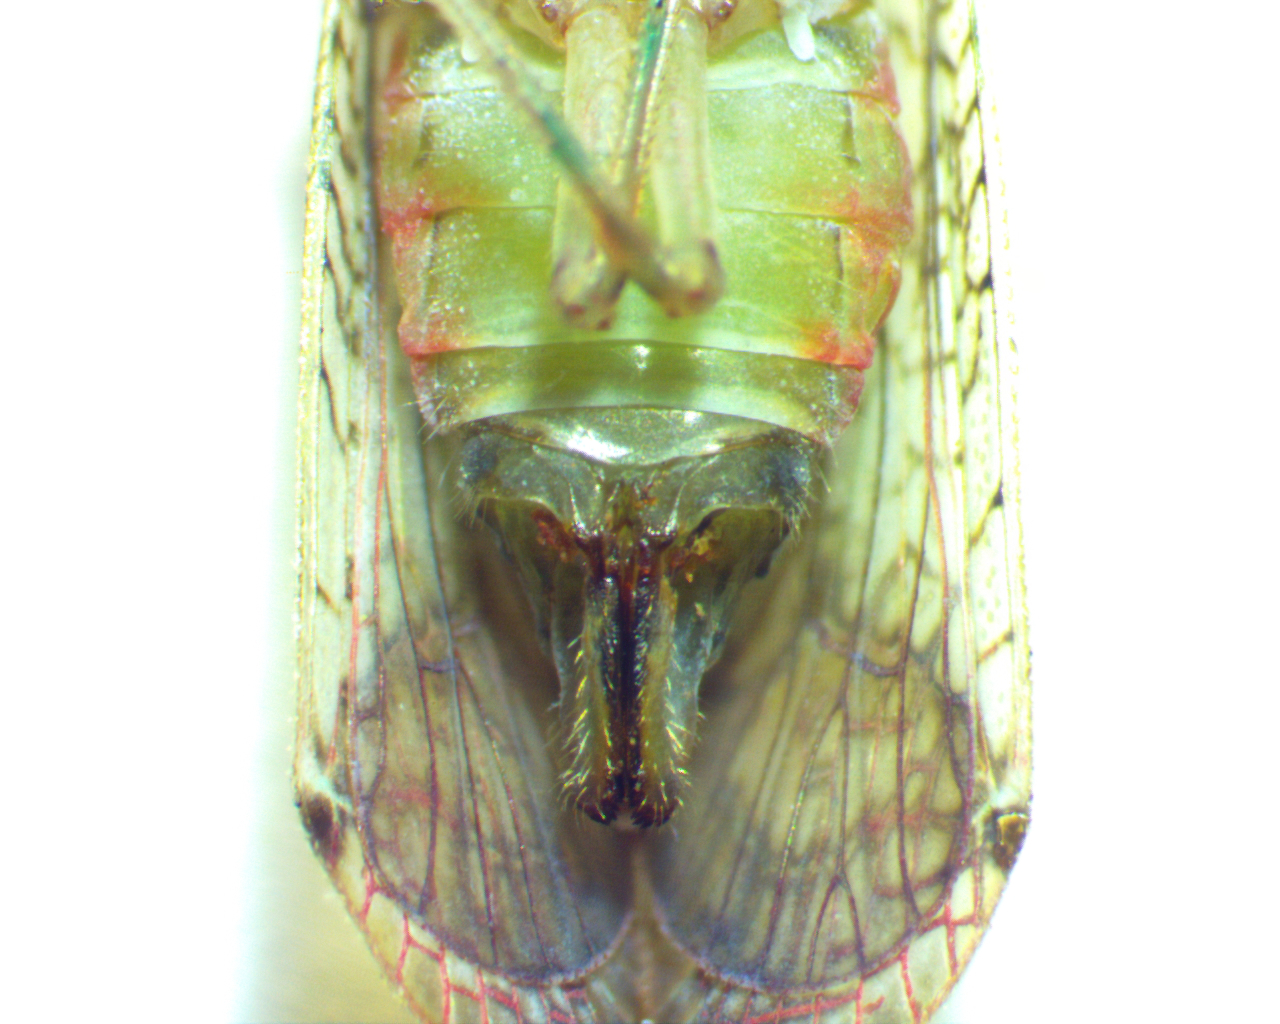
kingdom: Animalia
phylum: Arthropoda
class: Insecta
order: Hemiptera
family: Tropiduchidae
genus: Pelitropis
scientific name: Pelitropis rotulata
